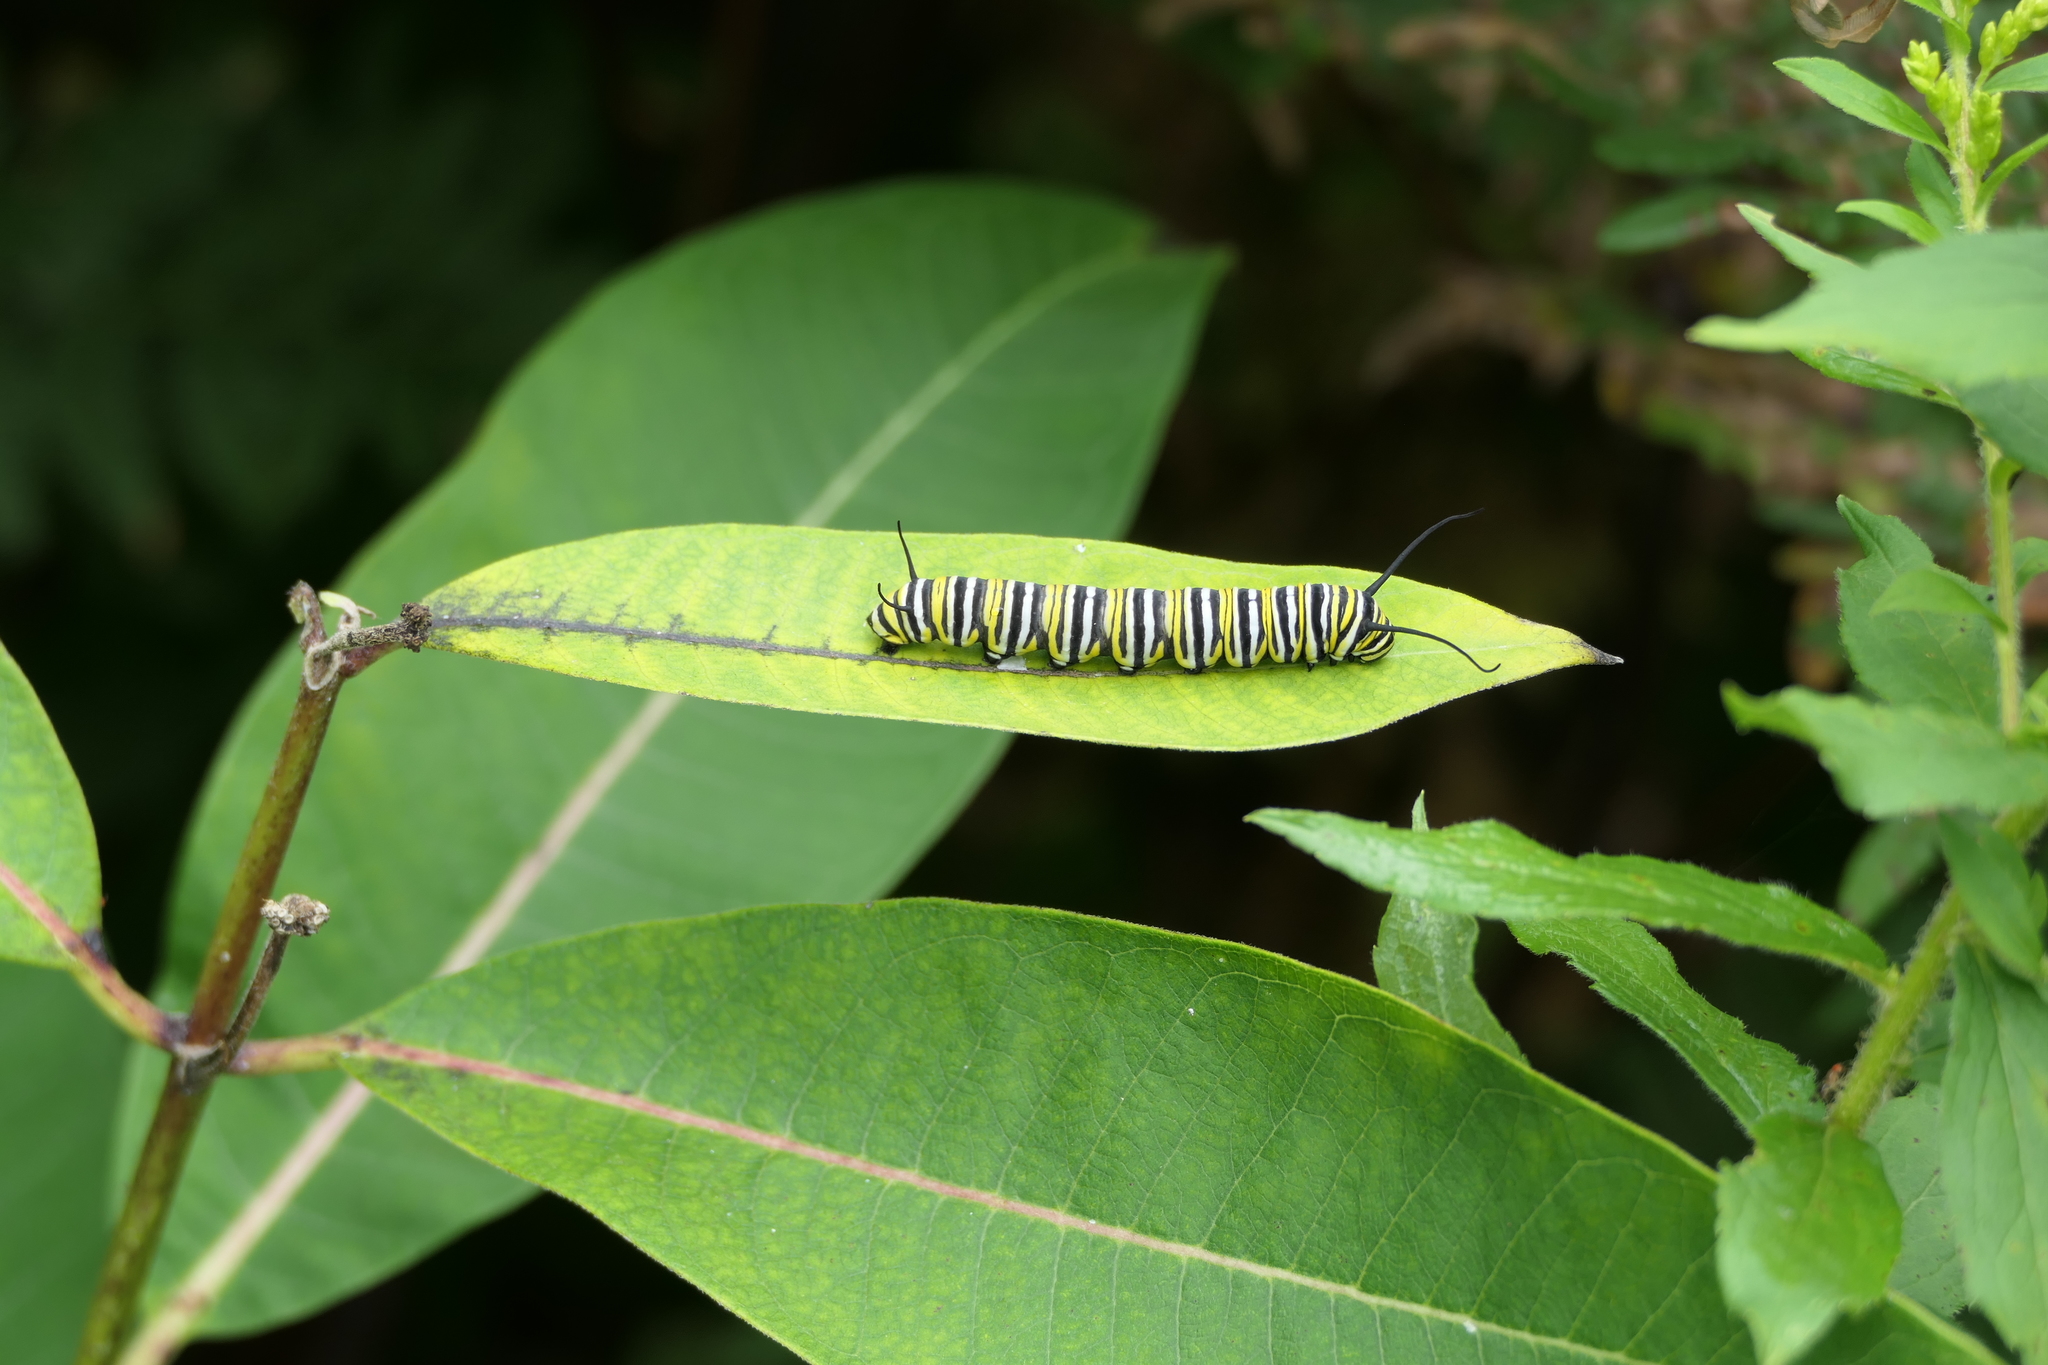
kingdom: Animalia
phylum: Arthropoda
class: Insecta
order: Lepidoptera
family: Nymphalidae
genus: Danaus
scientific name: Danaus plexippus
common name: Monarch
